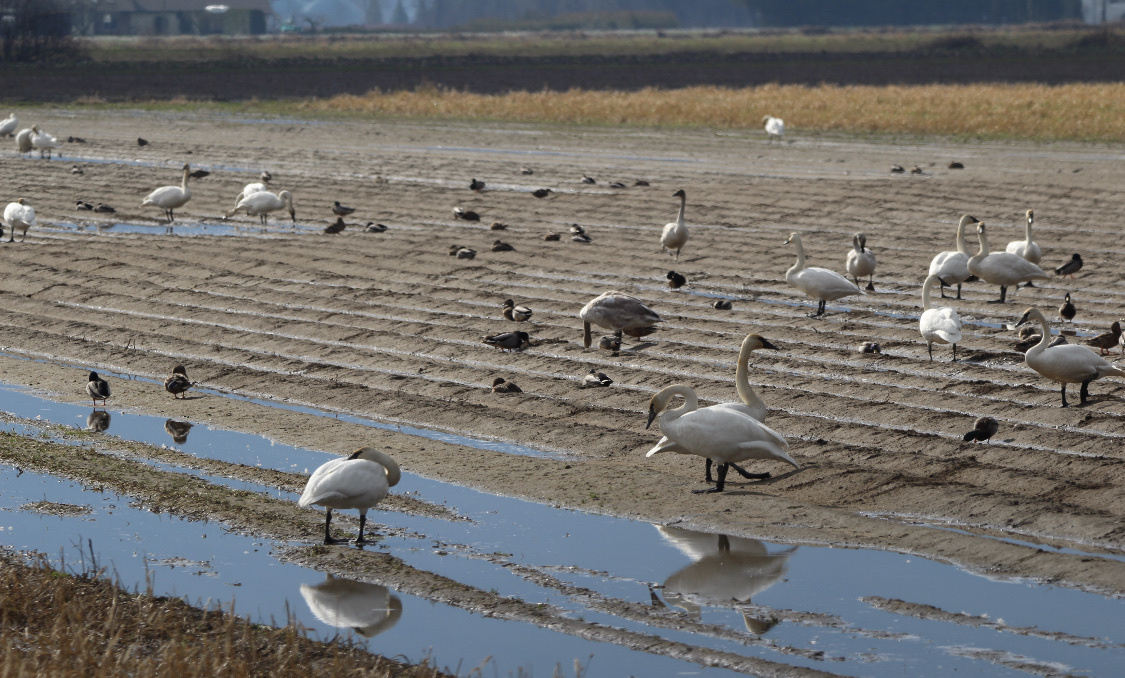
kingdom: Animalia
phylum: Chordata
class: Aves
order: Anseriformes
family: Anatidae
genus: Anas
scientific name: Anas platyrhynchos
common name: Mallard
